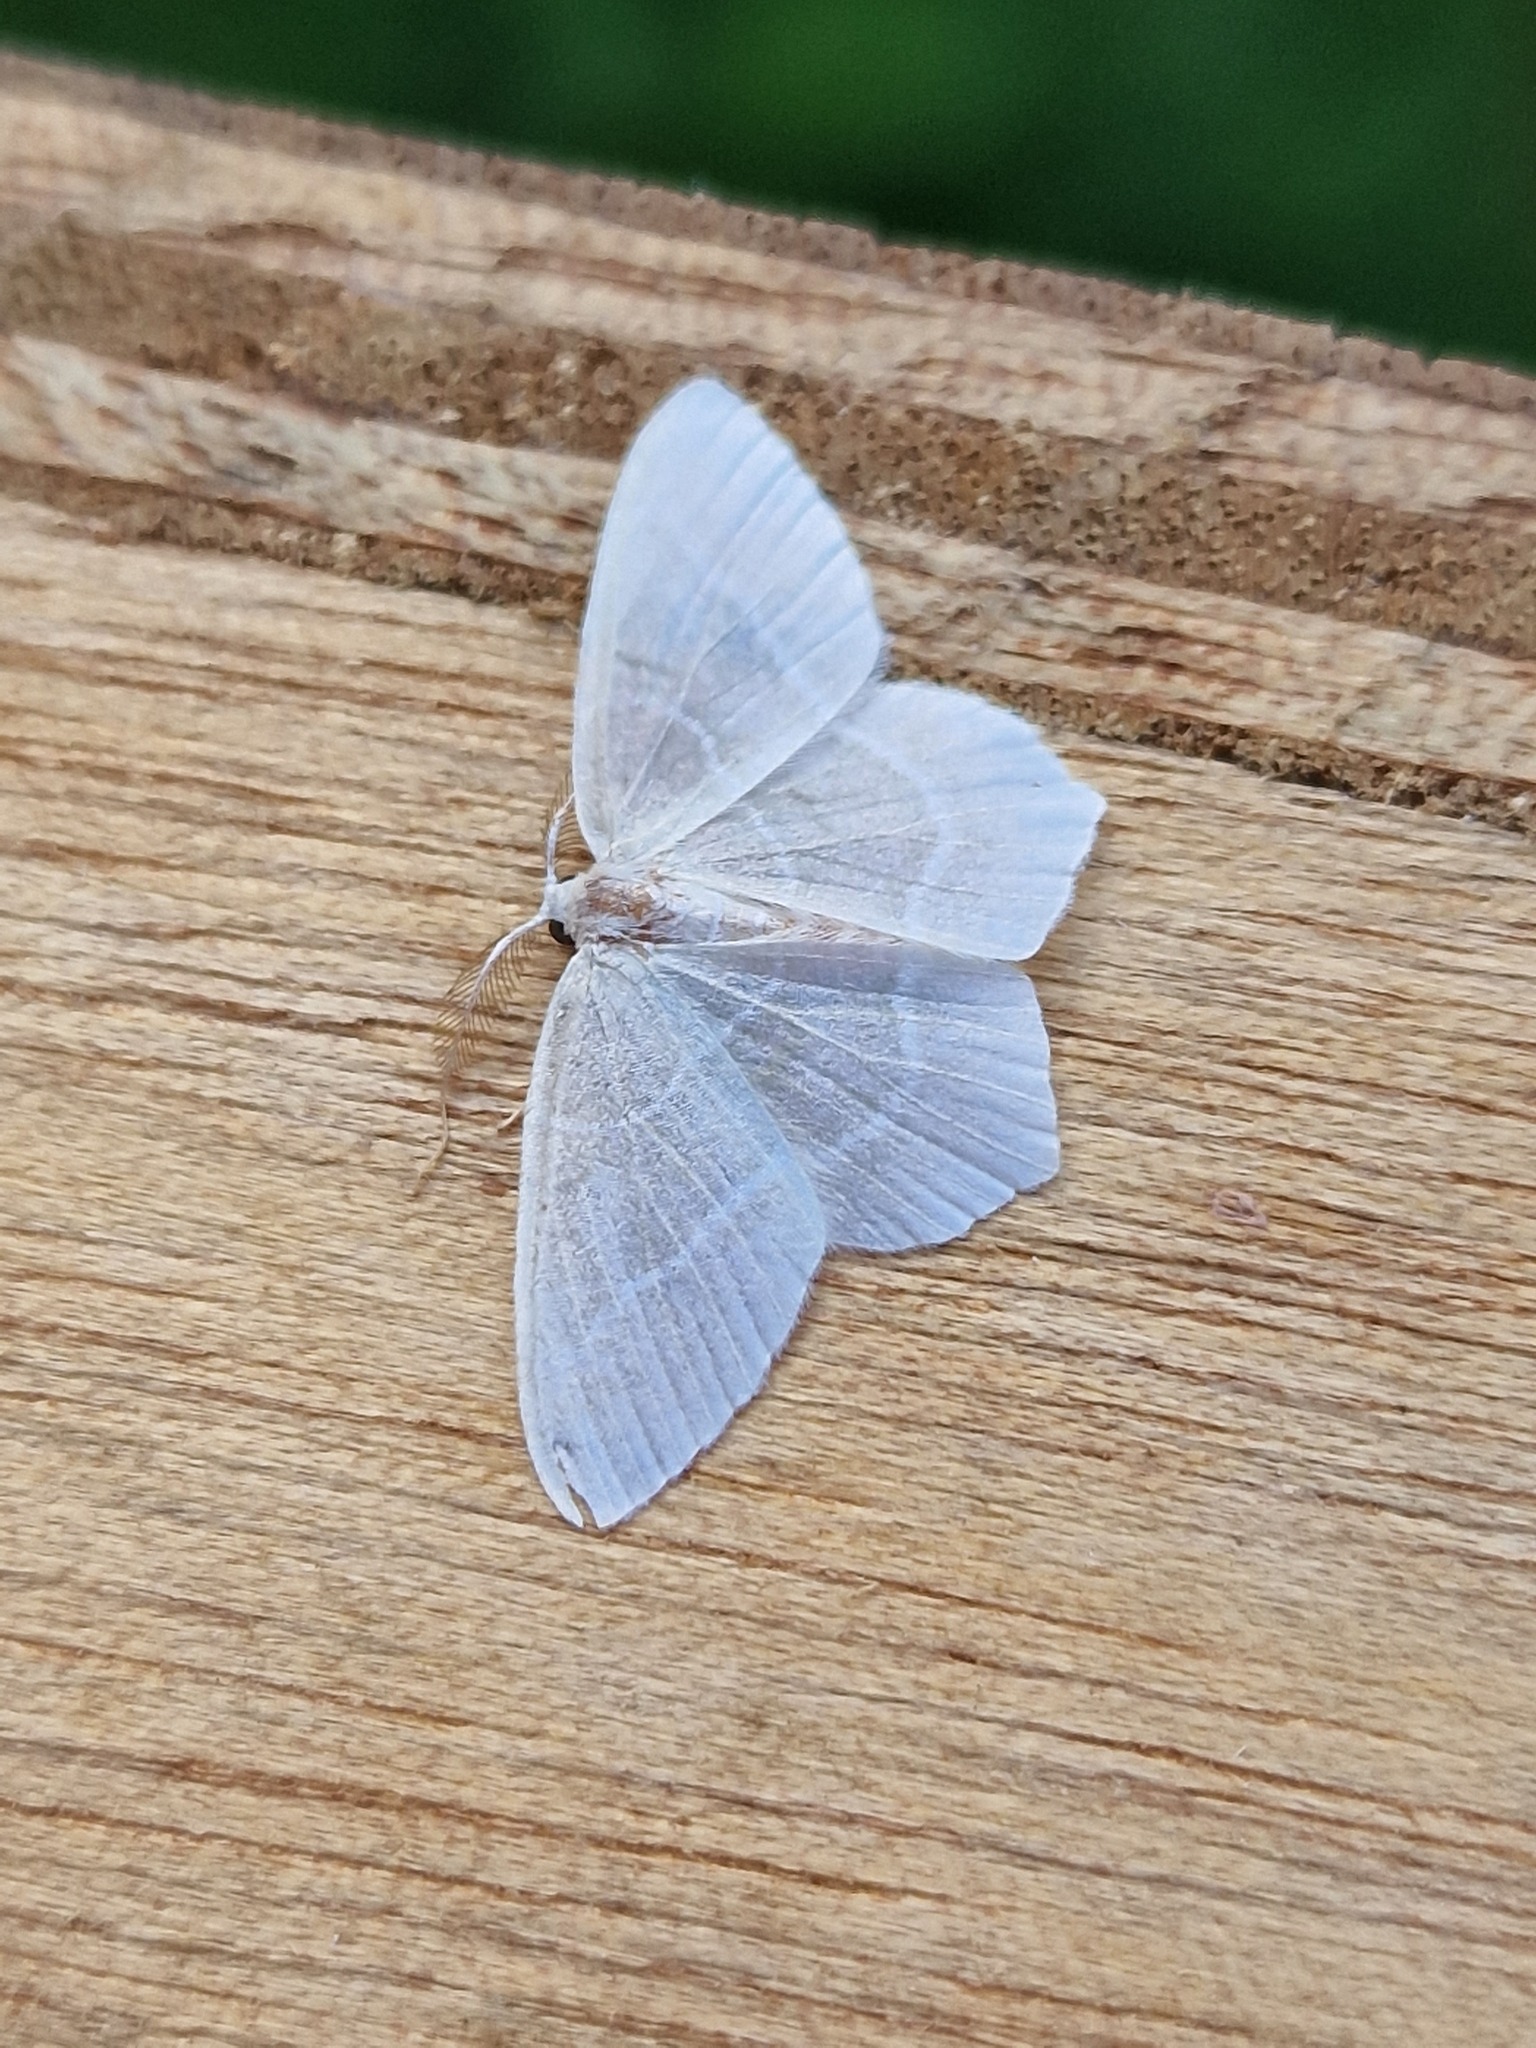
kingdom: Animalia
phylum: Arthropoda
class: Insecta
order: Lepidoptera
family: Geometridae
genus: Jodis
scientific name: Jodis lactearia
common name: Little emerald
